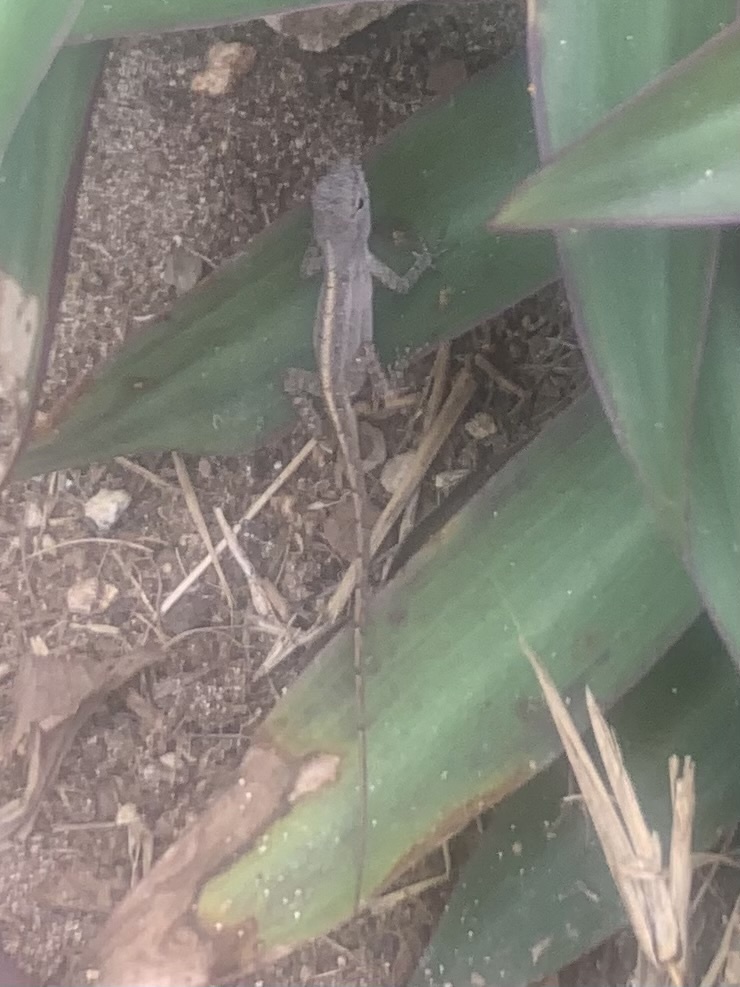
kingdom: Animalia
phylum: Chordata
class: Squamata
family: Dactyloidae
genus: Anolis
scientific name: Anolis sagrei
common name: Brown anole
